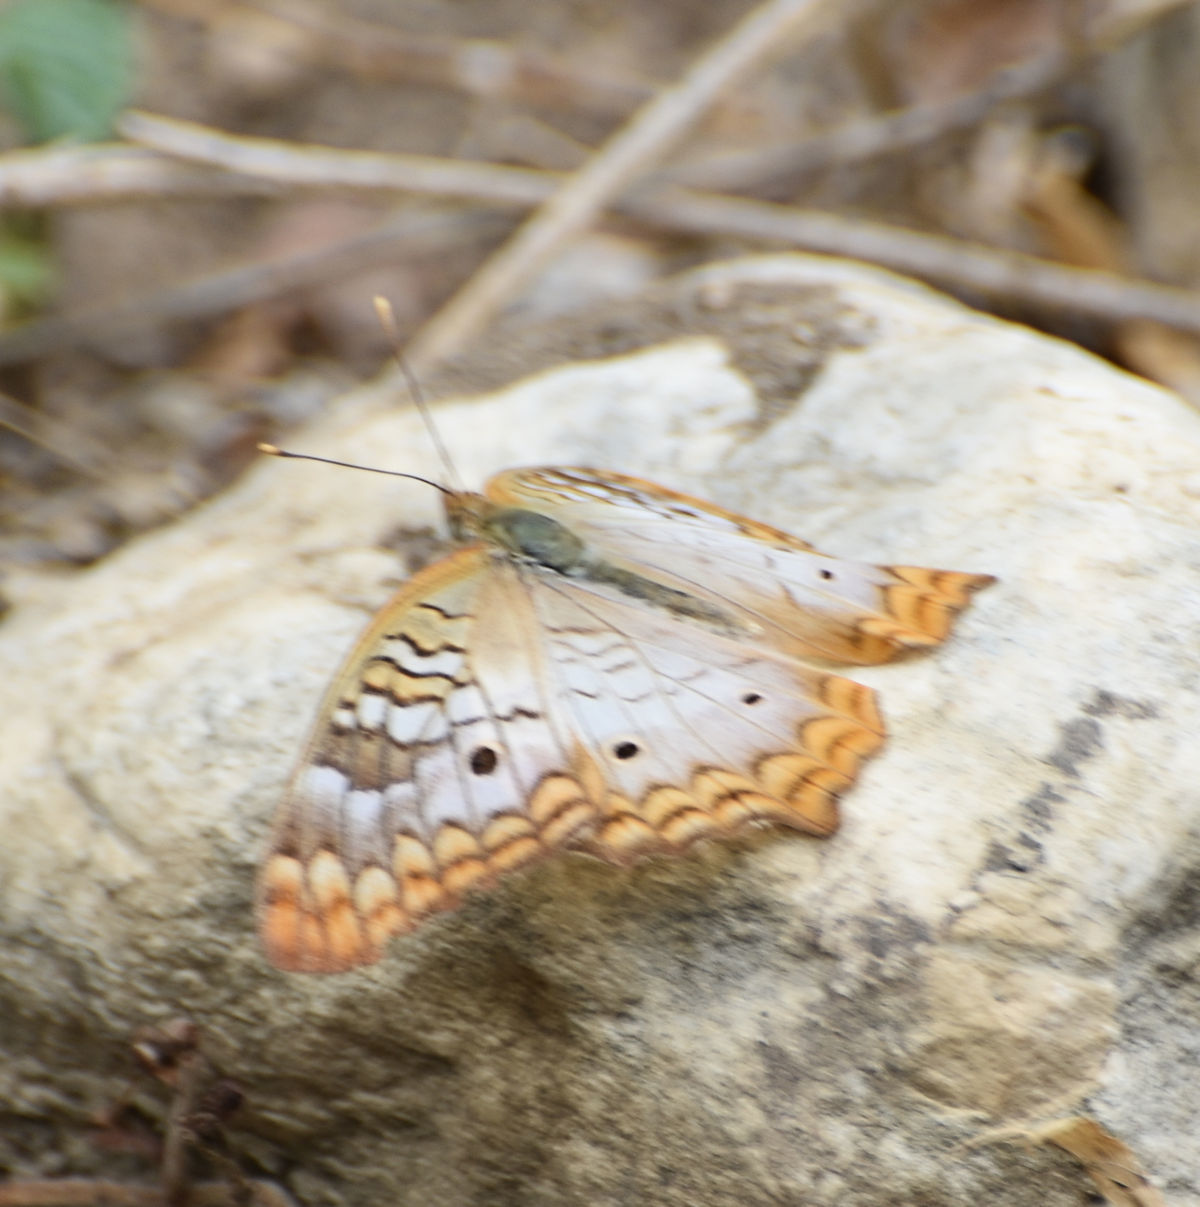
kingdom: Animalia
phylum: Arthropoda
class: Insecta
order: Lepidoptera
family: Nymphalidae
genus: Anartia
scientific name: Anartia jatrophae
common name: White peacock
